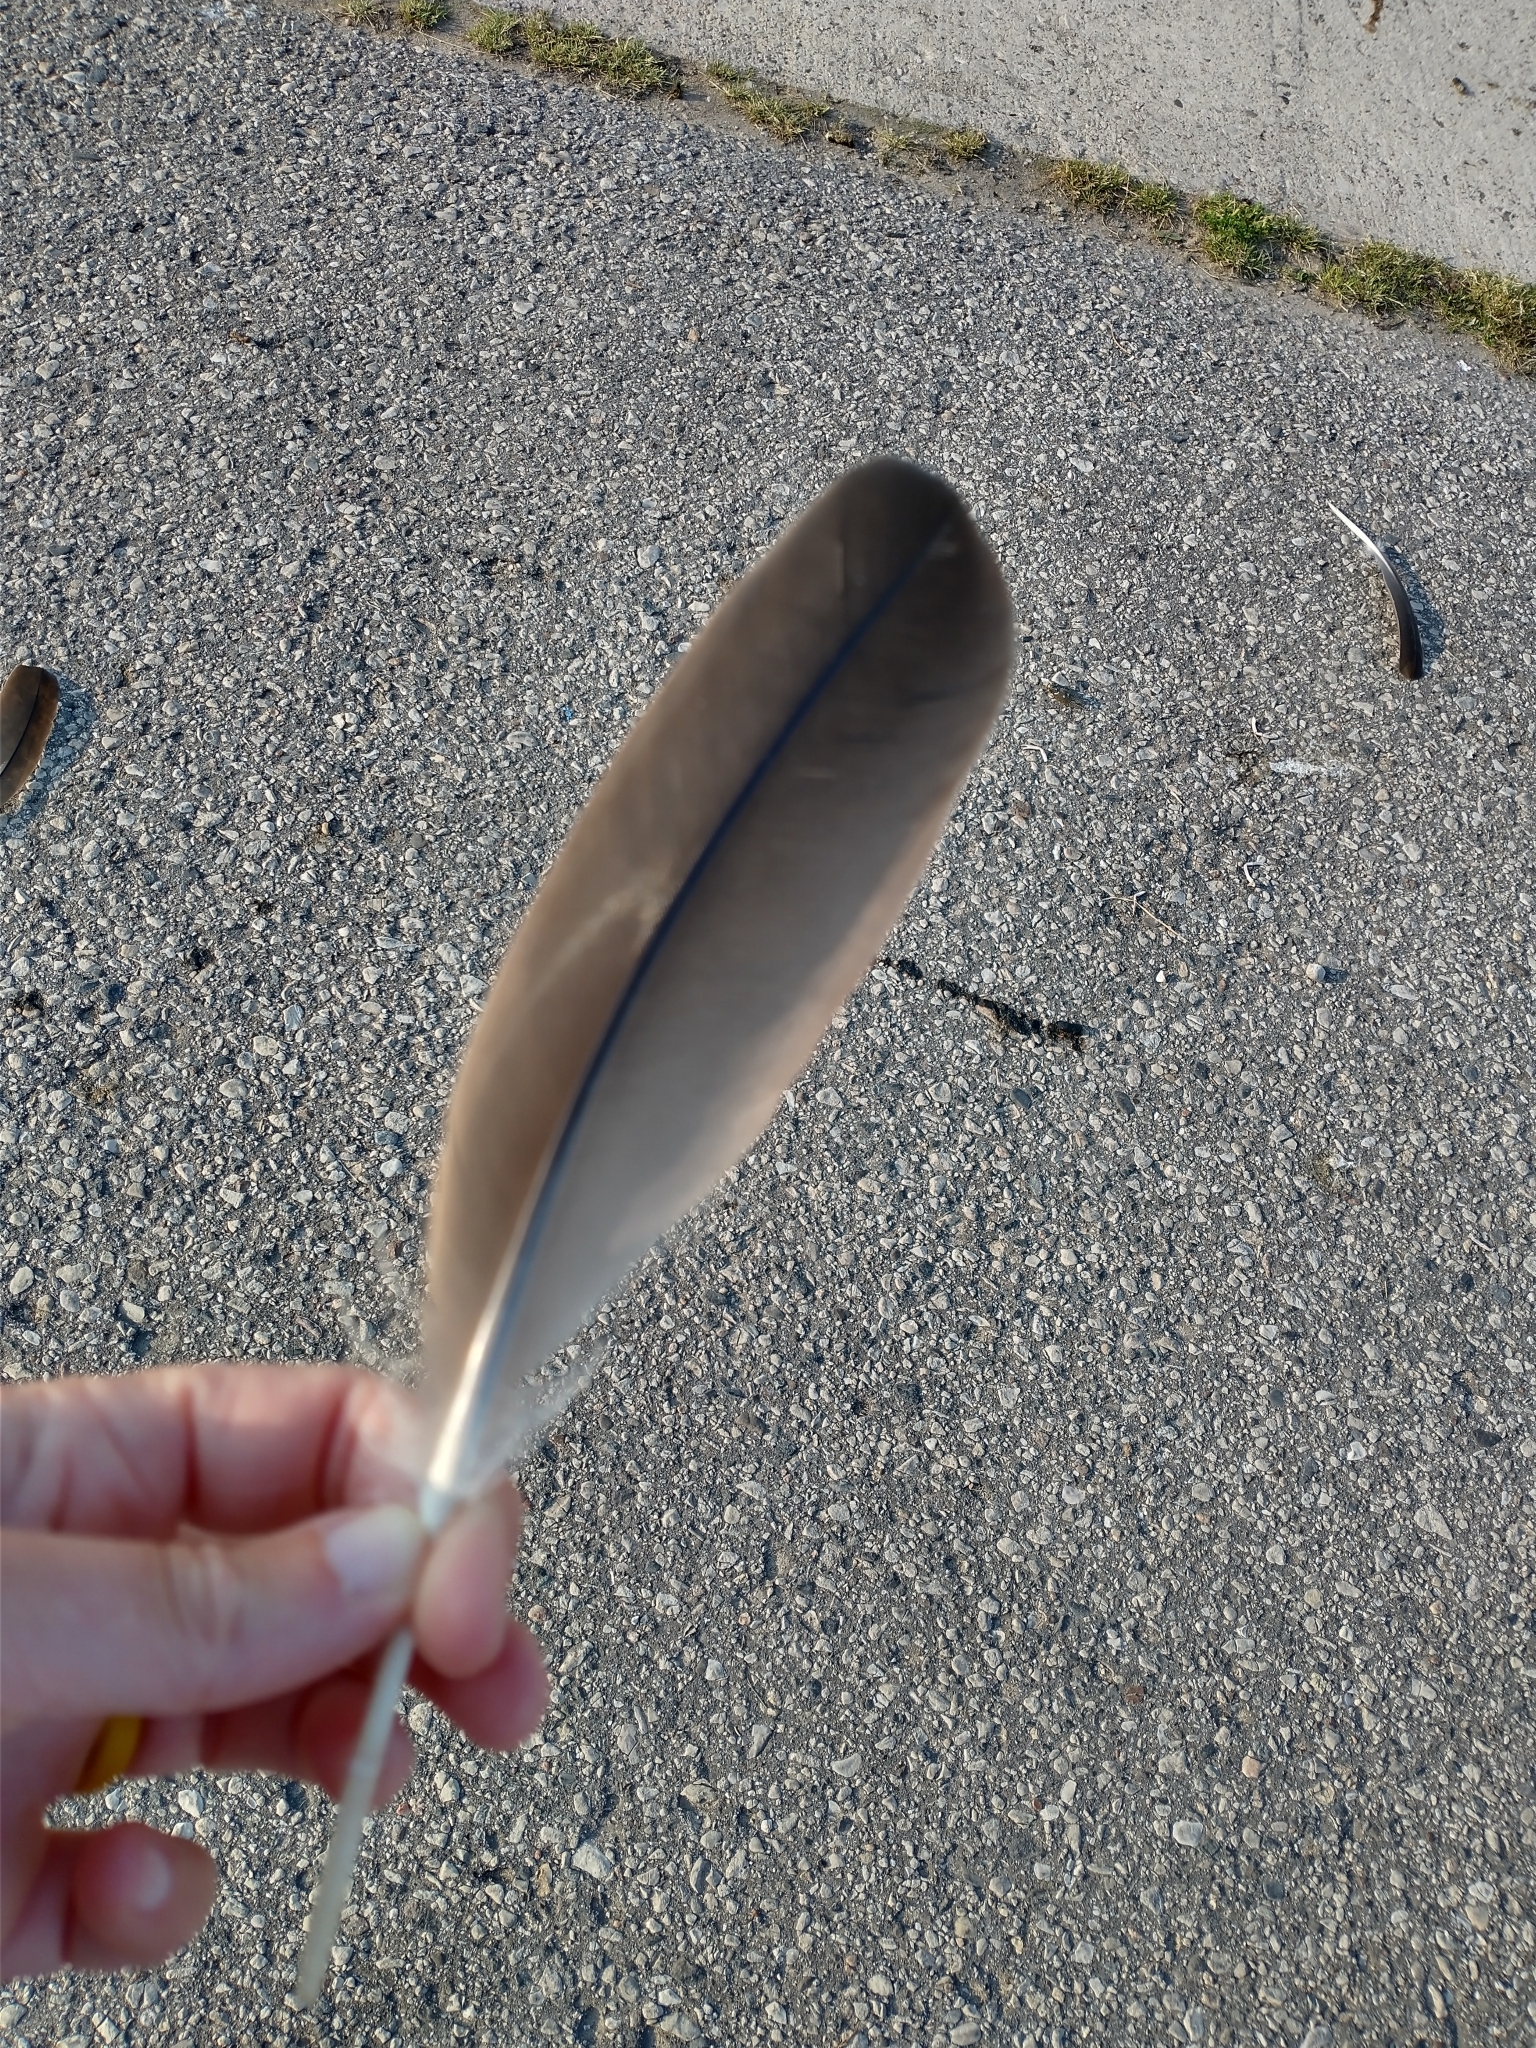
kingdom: Animalia
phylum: Chordata
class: Aves
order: Anseriformes
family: Anatidae
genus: Branta
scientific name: Branta canadensis
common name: Canada goose
